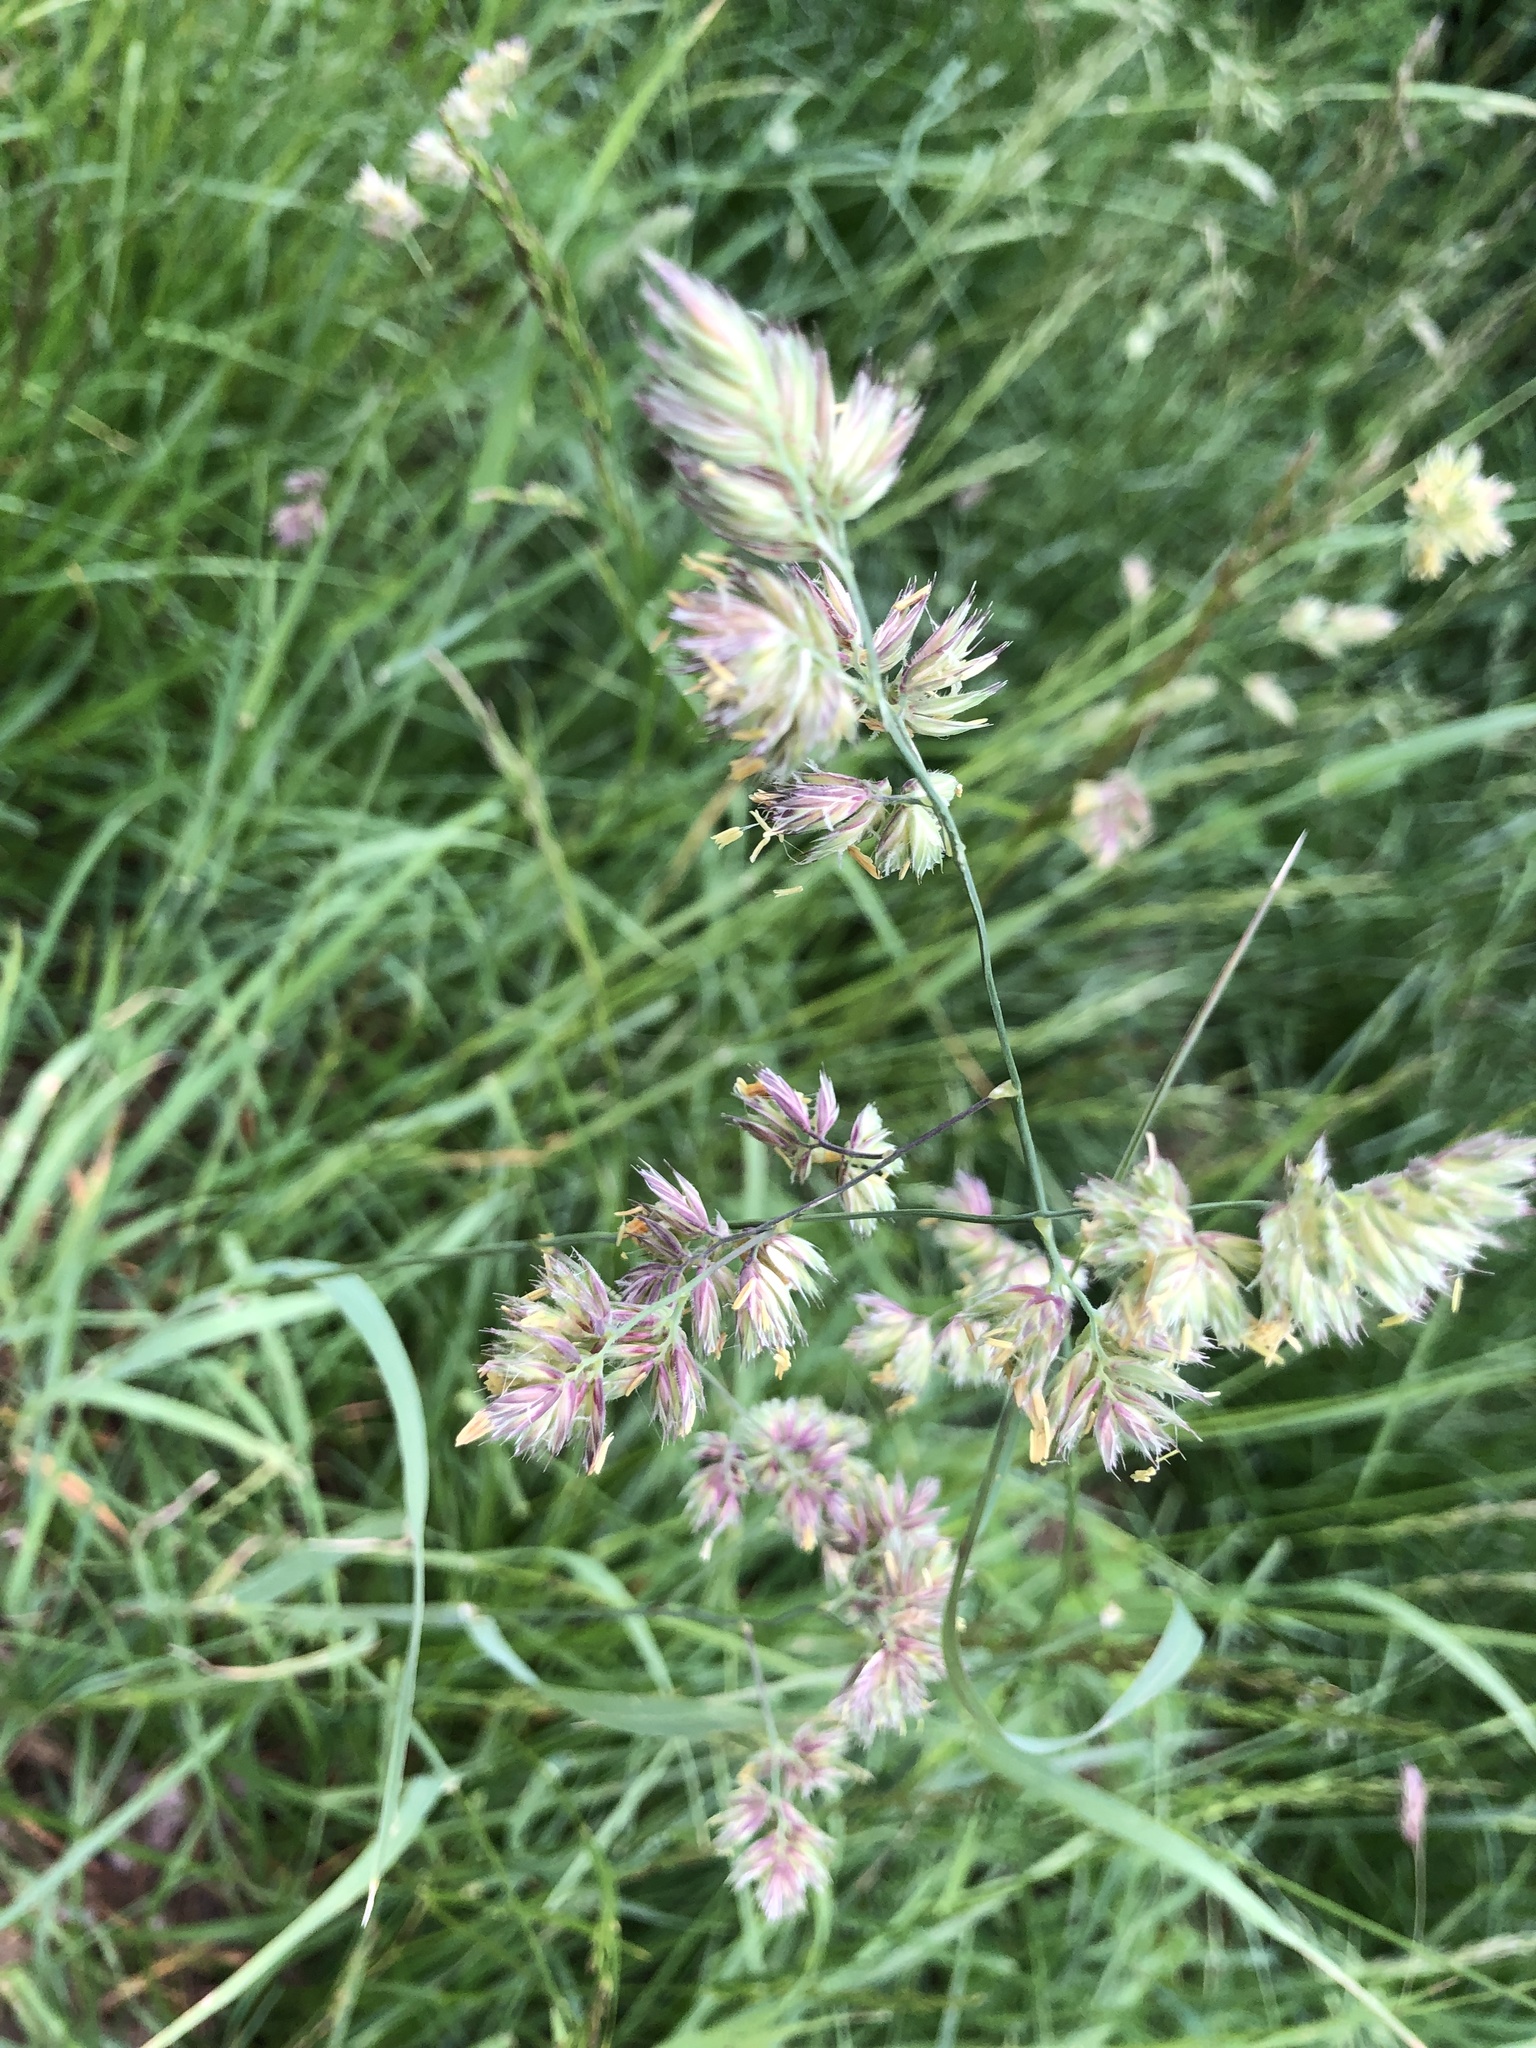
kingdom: Plantae
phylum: Tracheophyta
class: Liliopsida
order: Poales
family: Poaceae
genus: Dactylis
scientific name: Dactylis glomerata
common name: Orchardgrass
